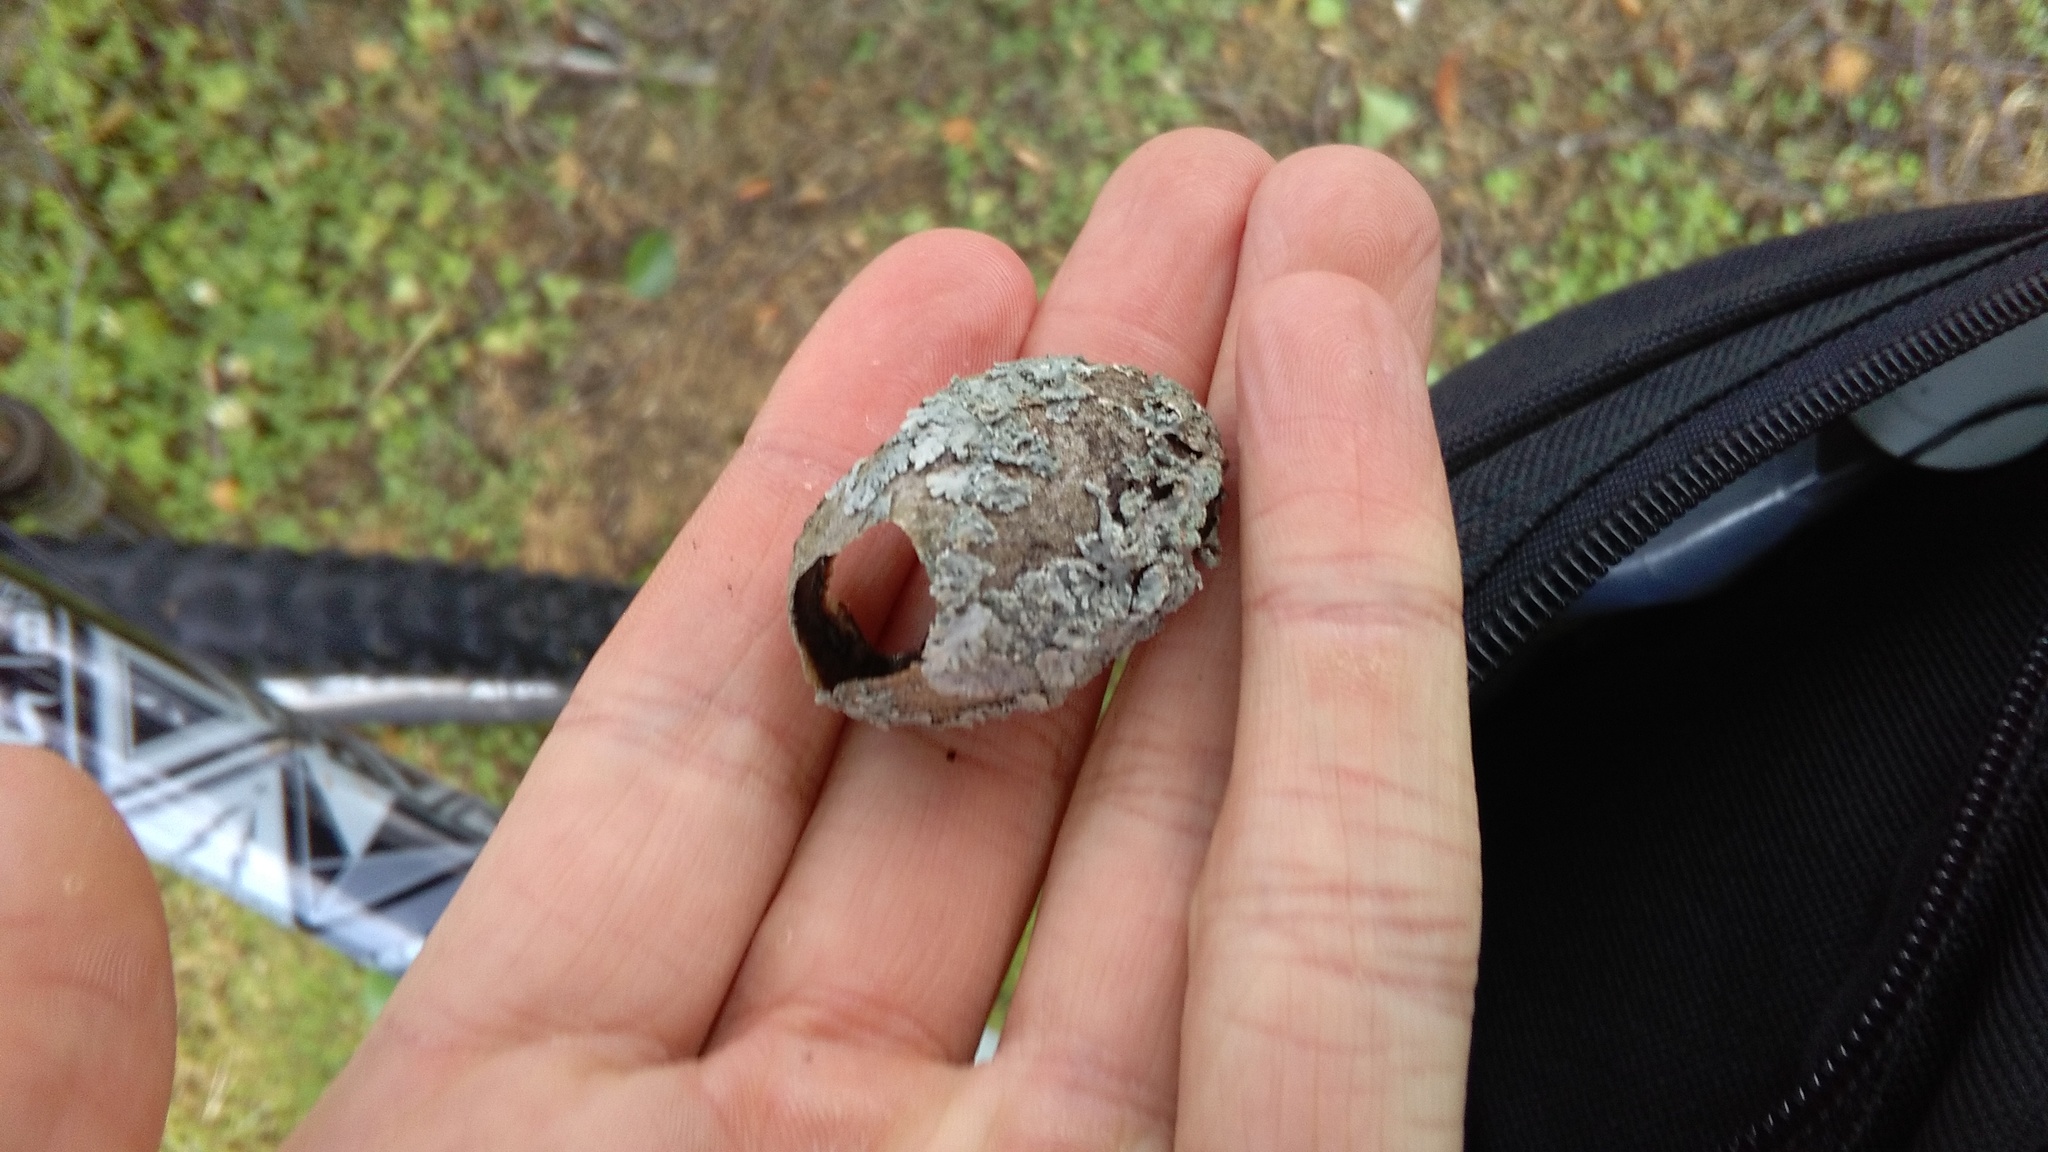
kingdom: Animalia
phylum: Arthropoda
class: Insecta
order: Lepidoptera
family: Saturniidae
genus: Opodiphthera
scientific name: Opodiphthera
